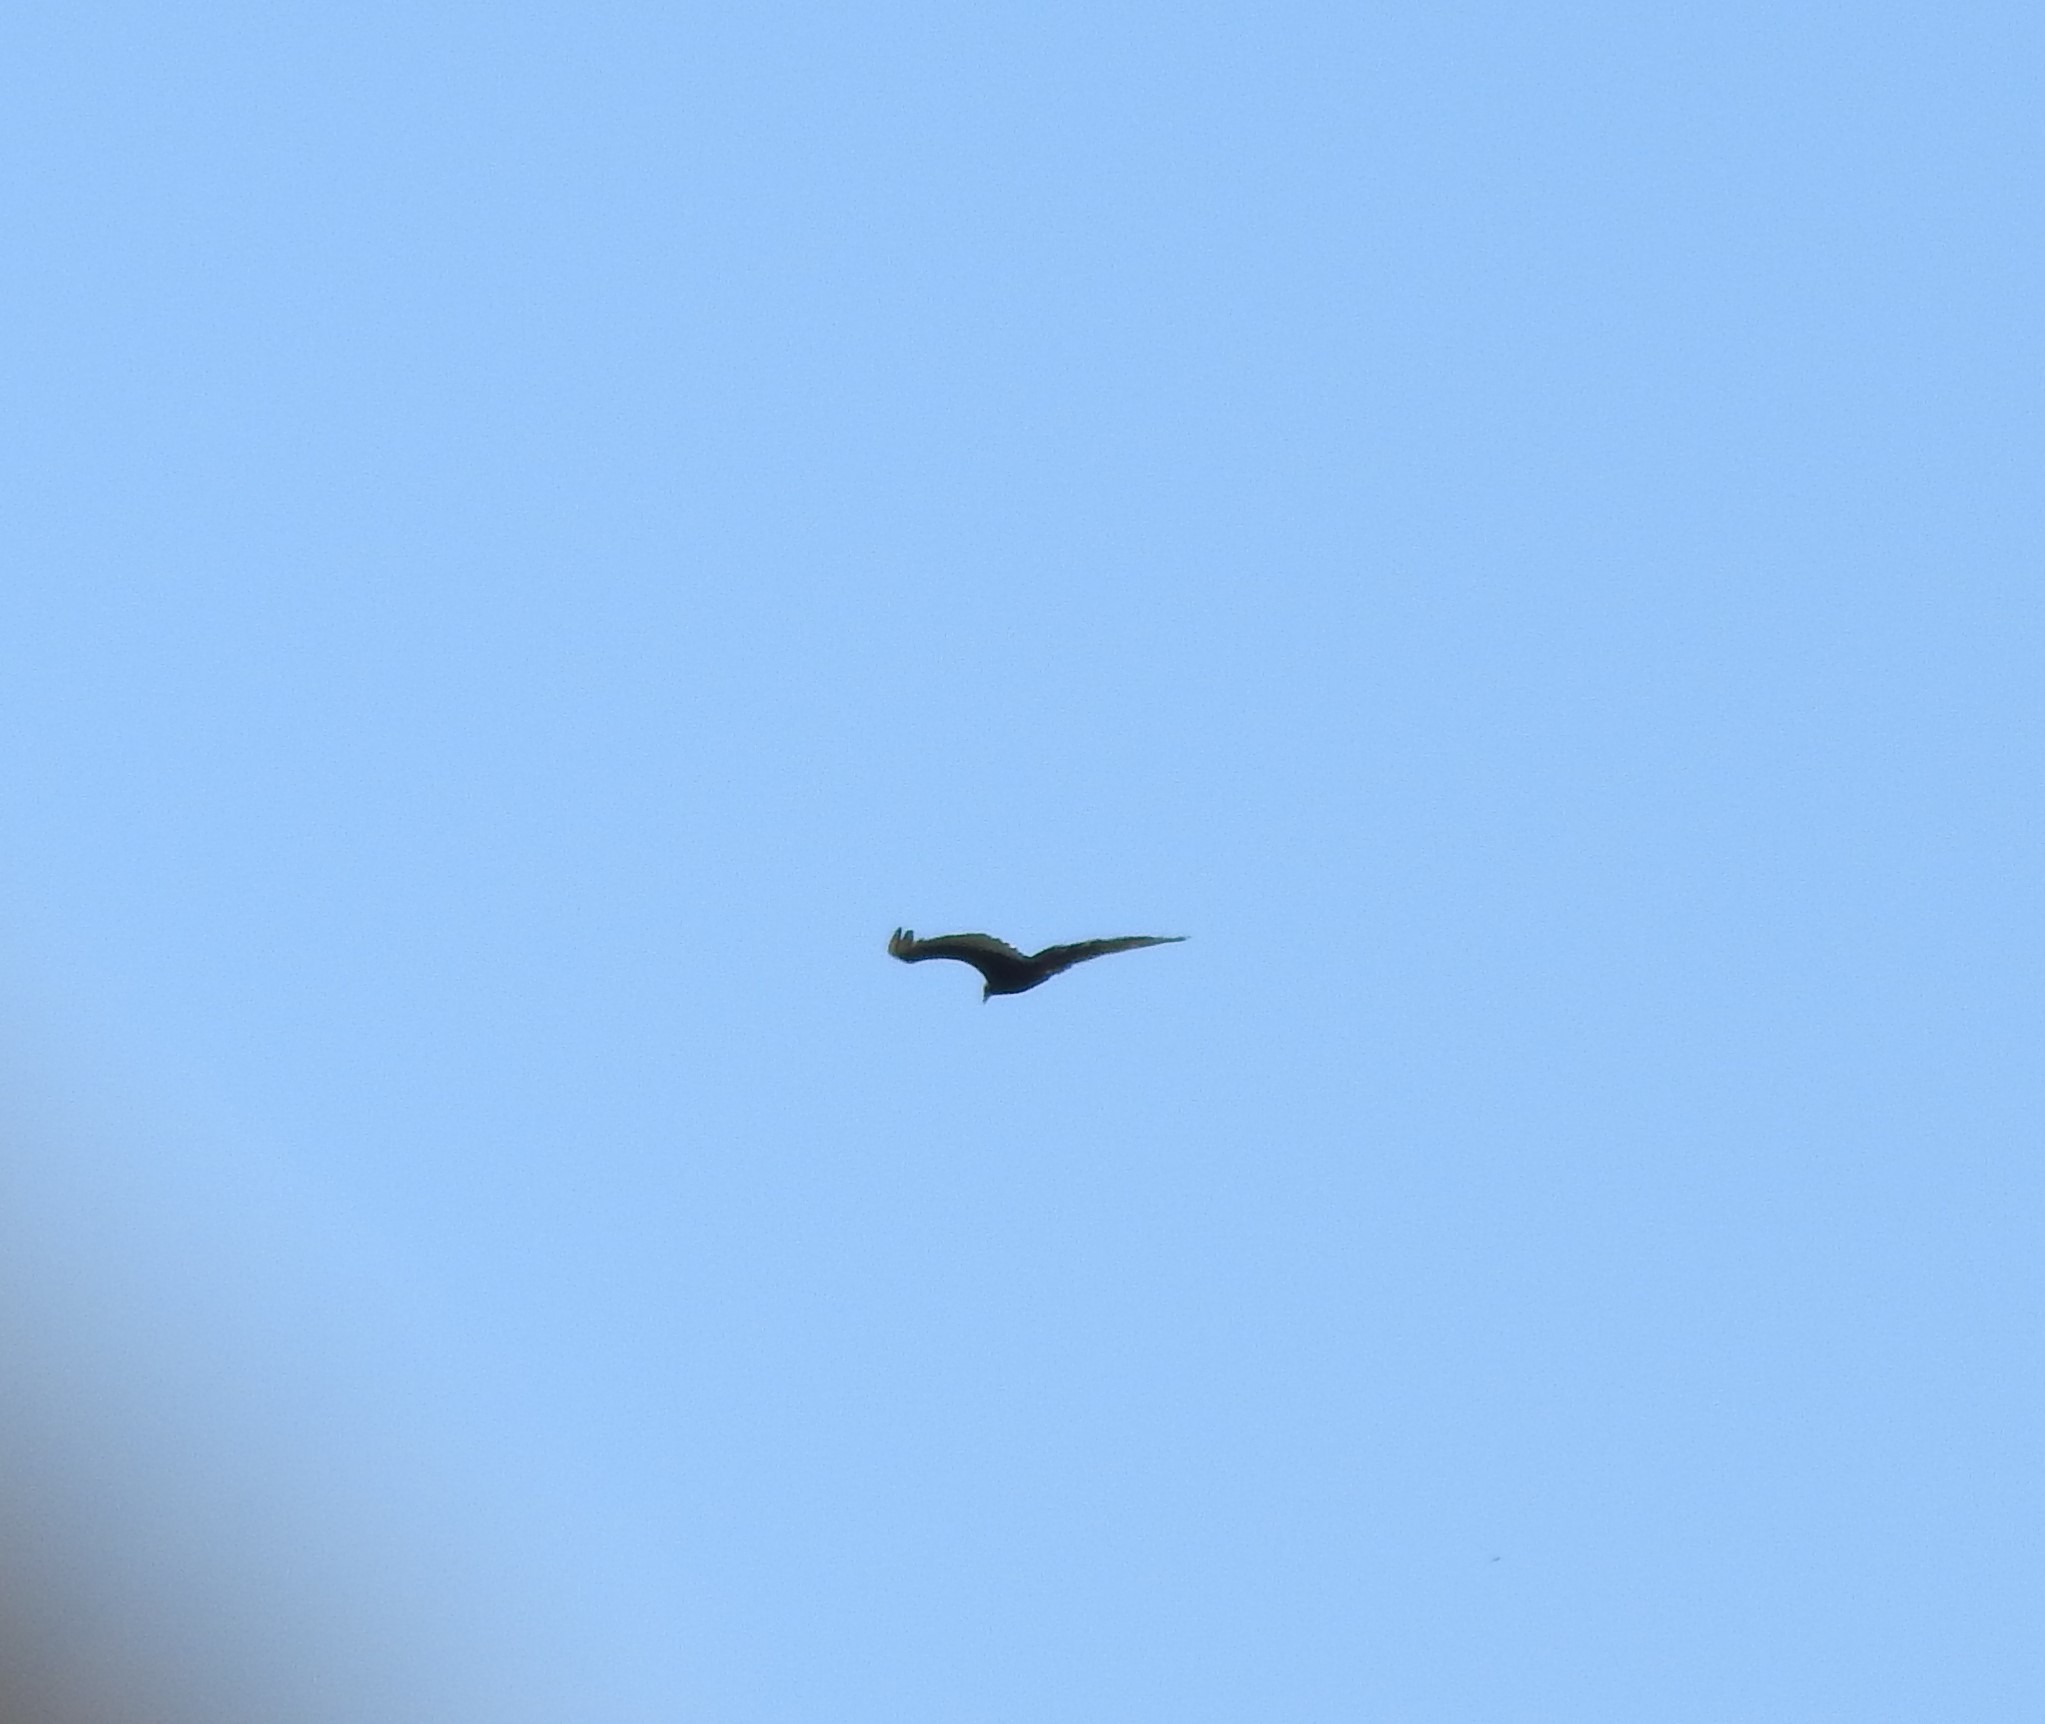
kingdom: Animalia
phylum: Chordata
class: Aves
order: Accipitriformes
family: Cathartidae
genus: Cathartes
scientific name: Cathartes aura
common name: Turkey vulture
